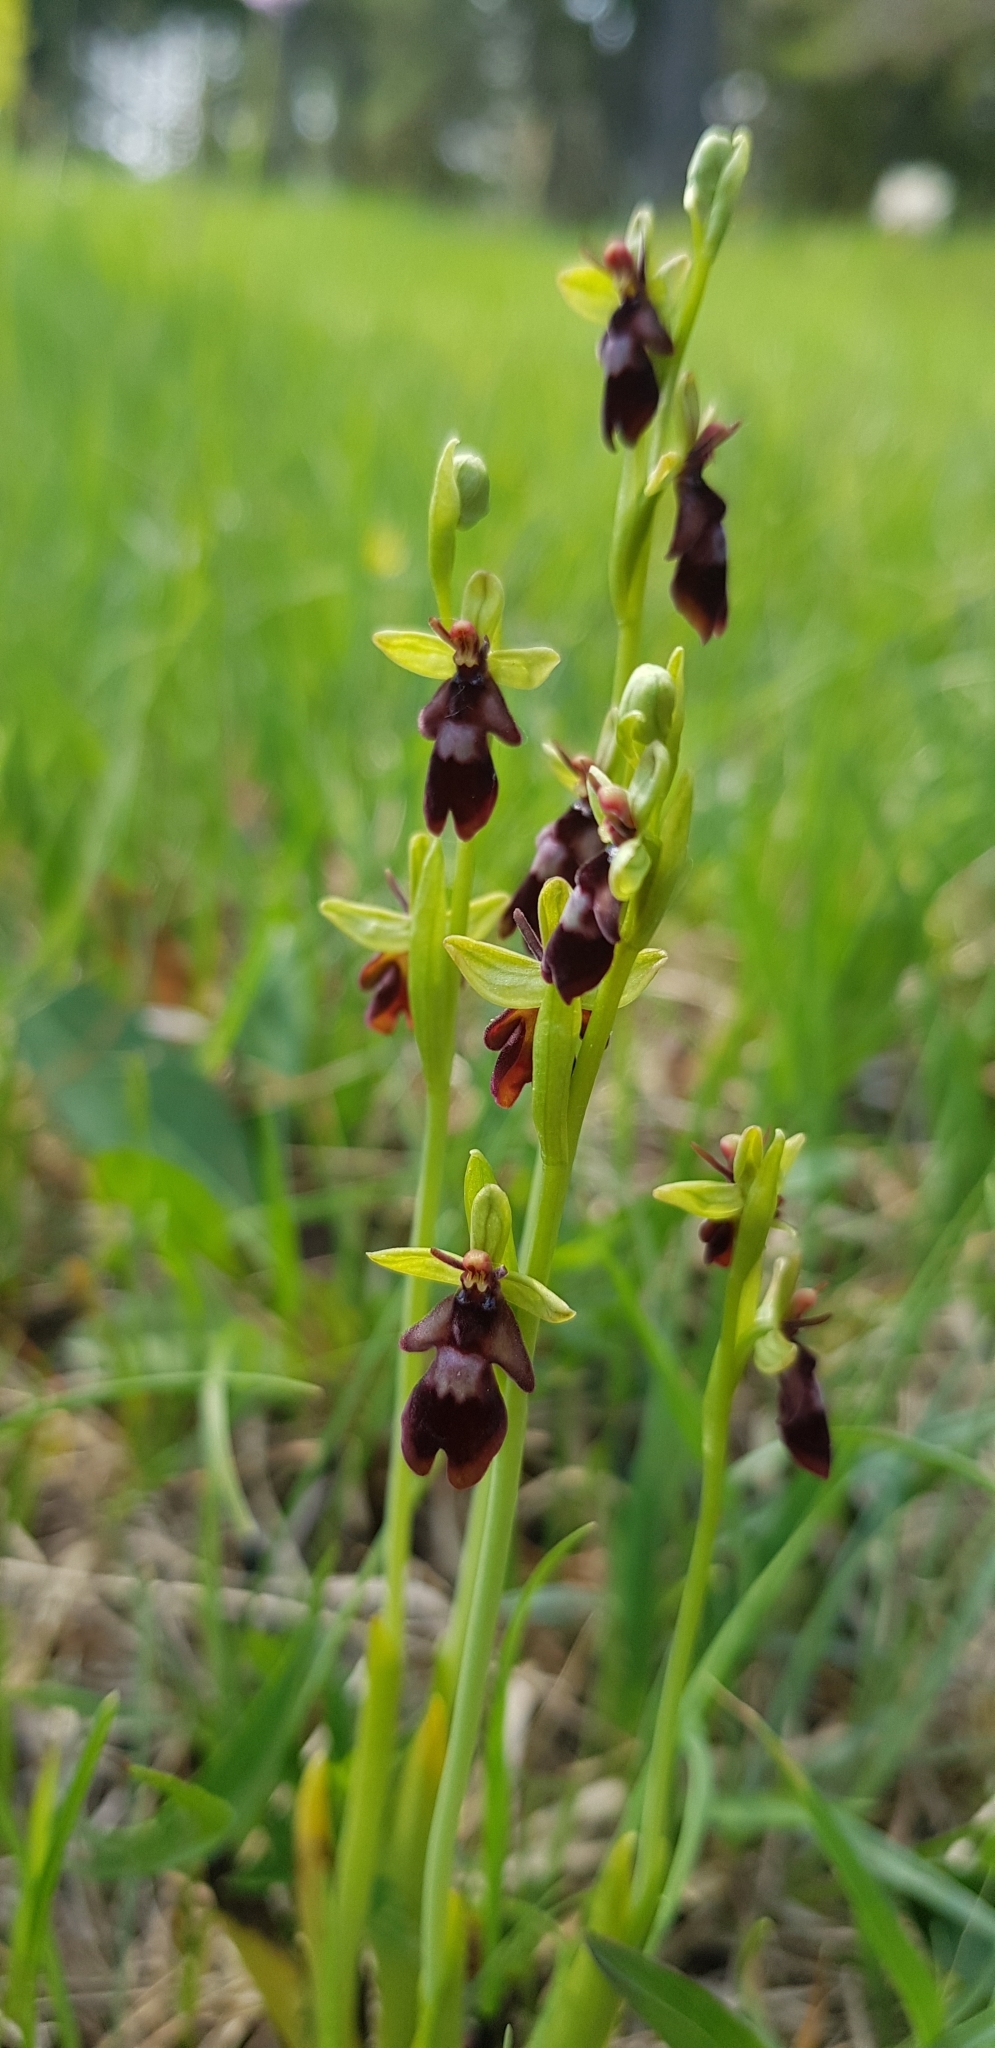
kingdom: Plantae
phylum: Tracheophyta
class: Liliopsida
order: Asparagales
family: Orchidaceae
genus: Ophrys
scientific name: Ophrys insectifera
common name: Fly orchid
